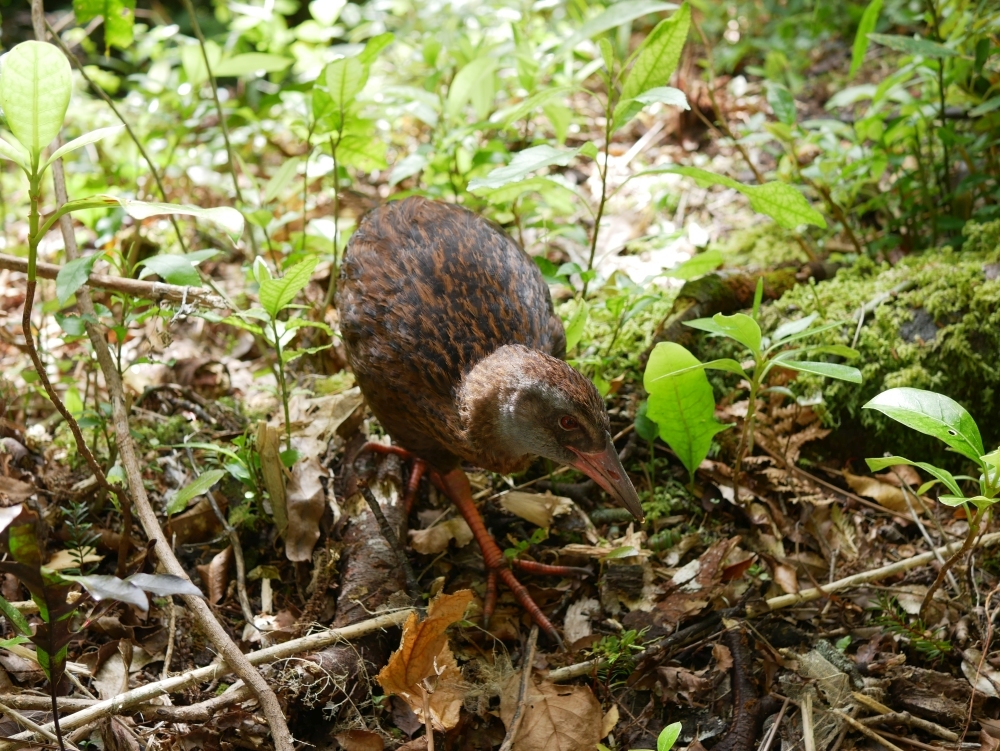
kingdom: Animalia
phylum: Chordata
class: Aves
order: Gruiformes
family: Rallidae
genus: Gallirallus
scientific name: Gallirallus australis
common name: Weka
